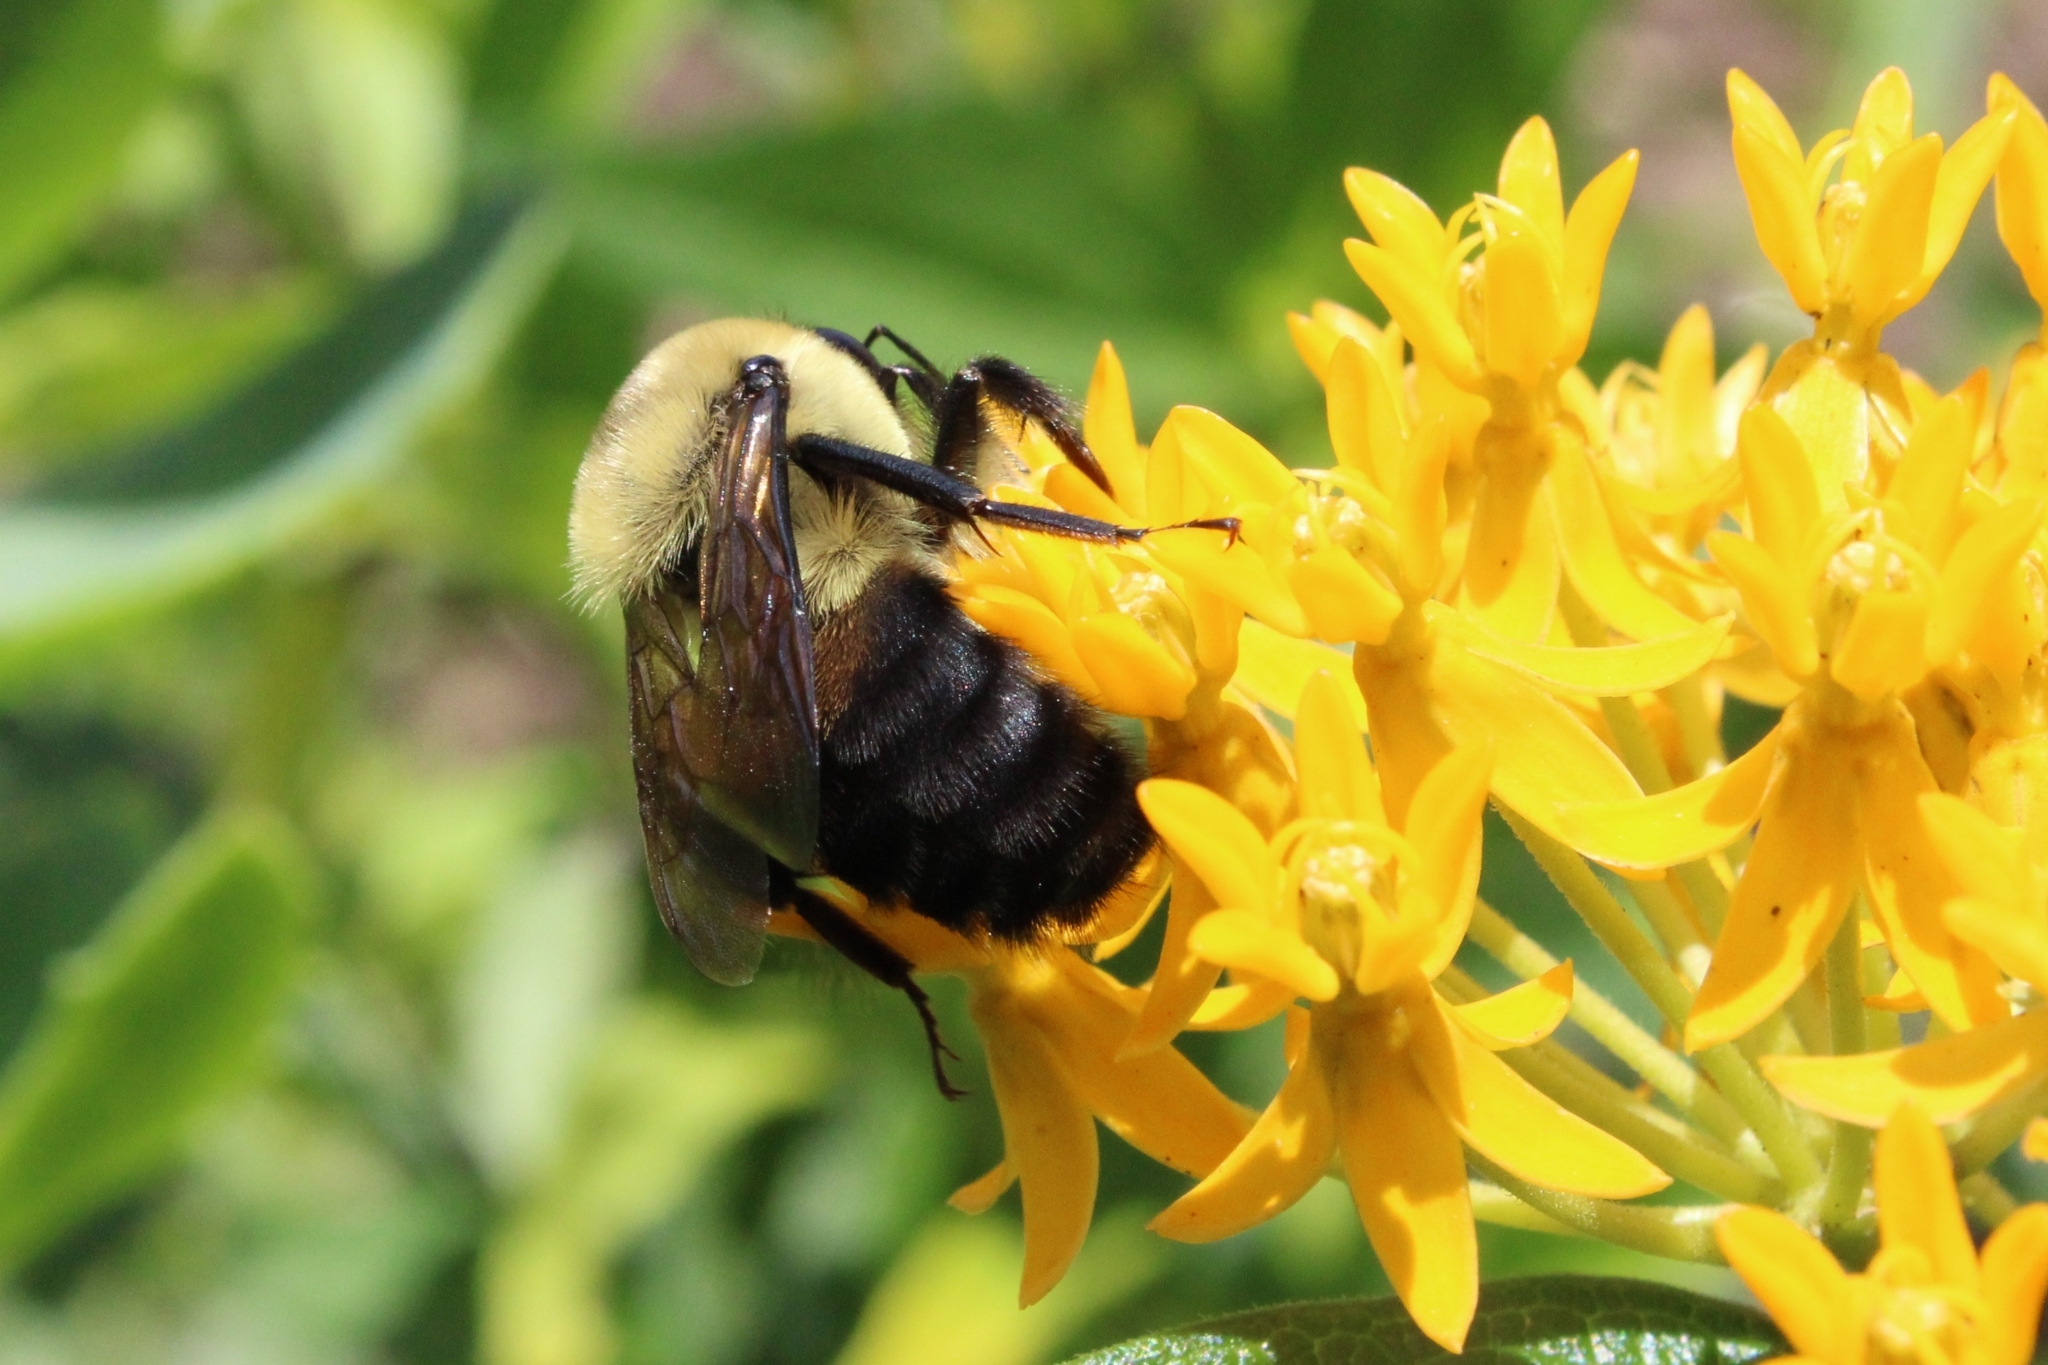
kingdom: Animalia
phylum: Arthropoda
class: Insecta
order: Hymenoptera
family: Apidae
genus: Bombus
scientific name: Bombus griseocollis
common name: Brown-belted bumble bee
